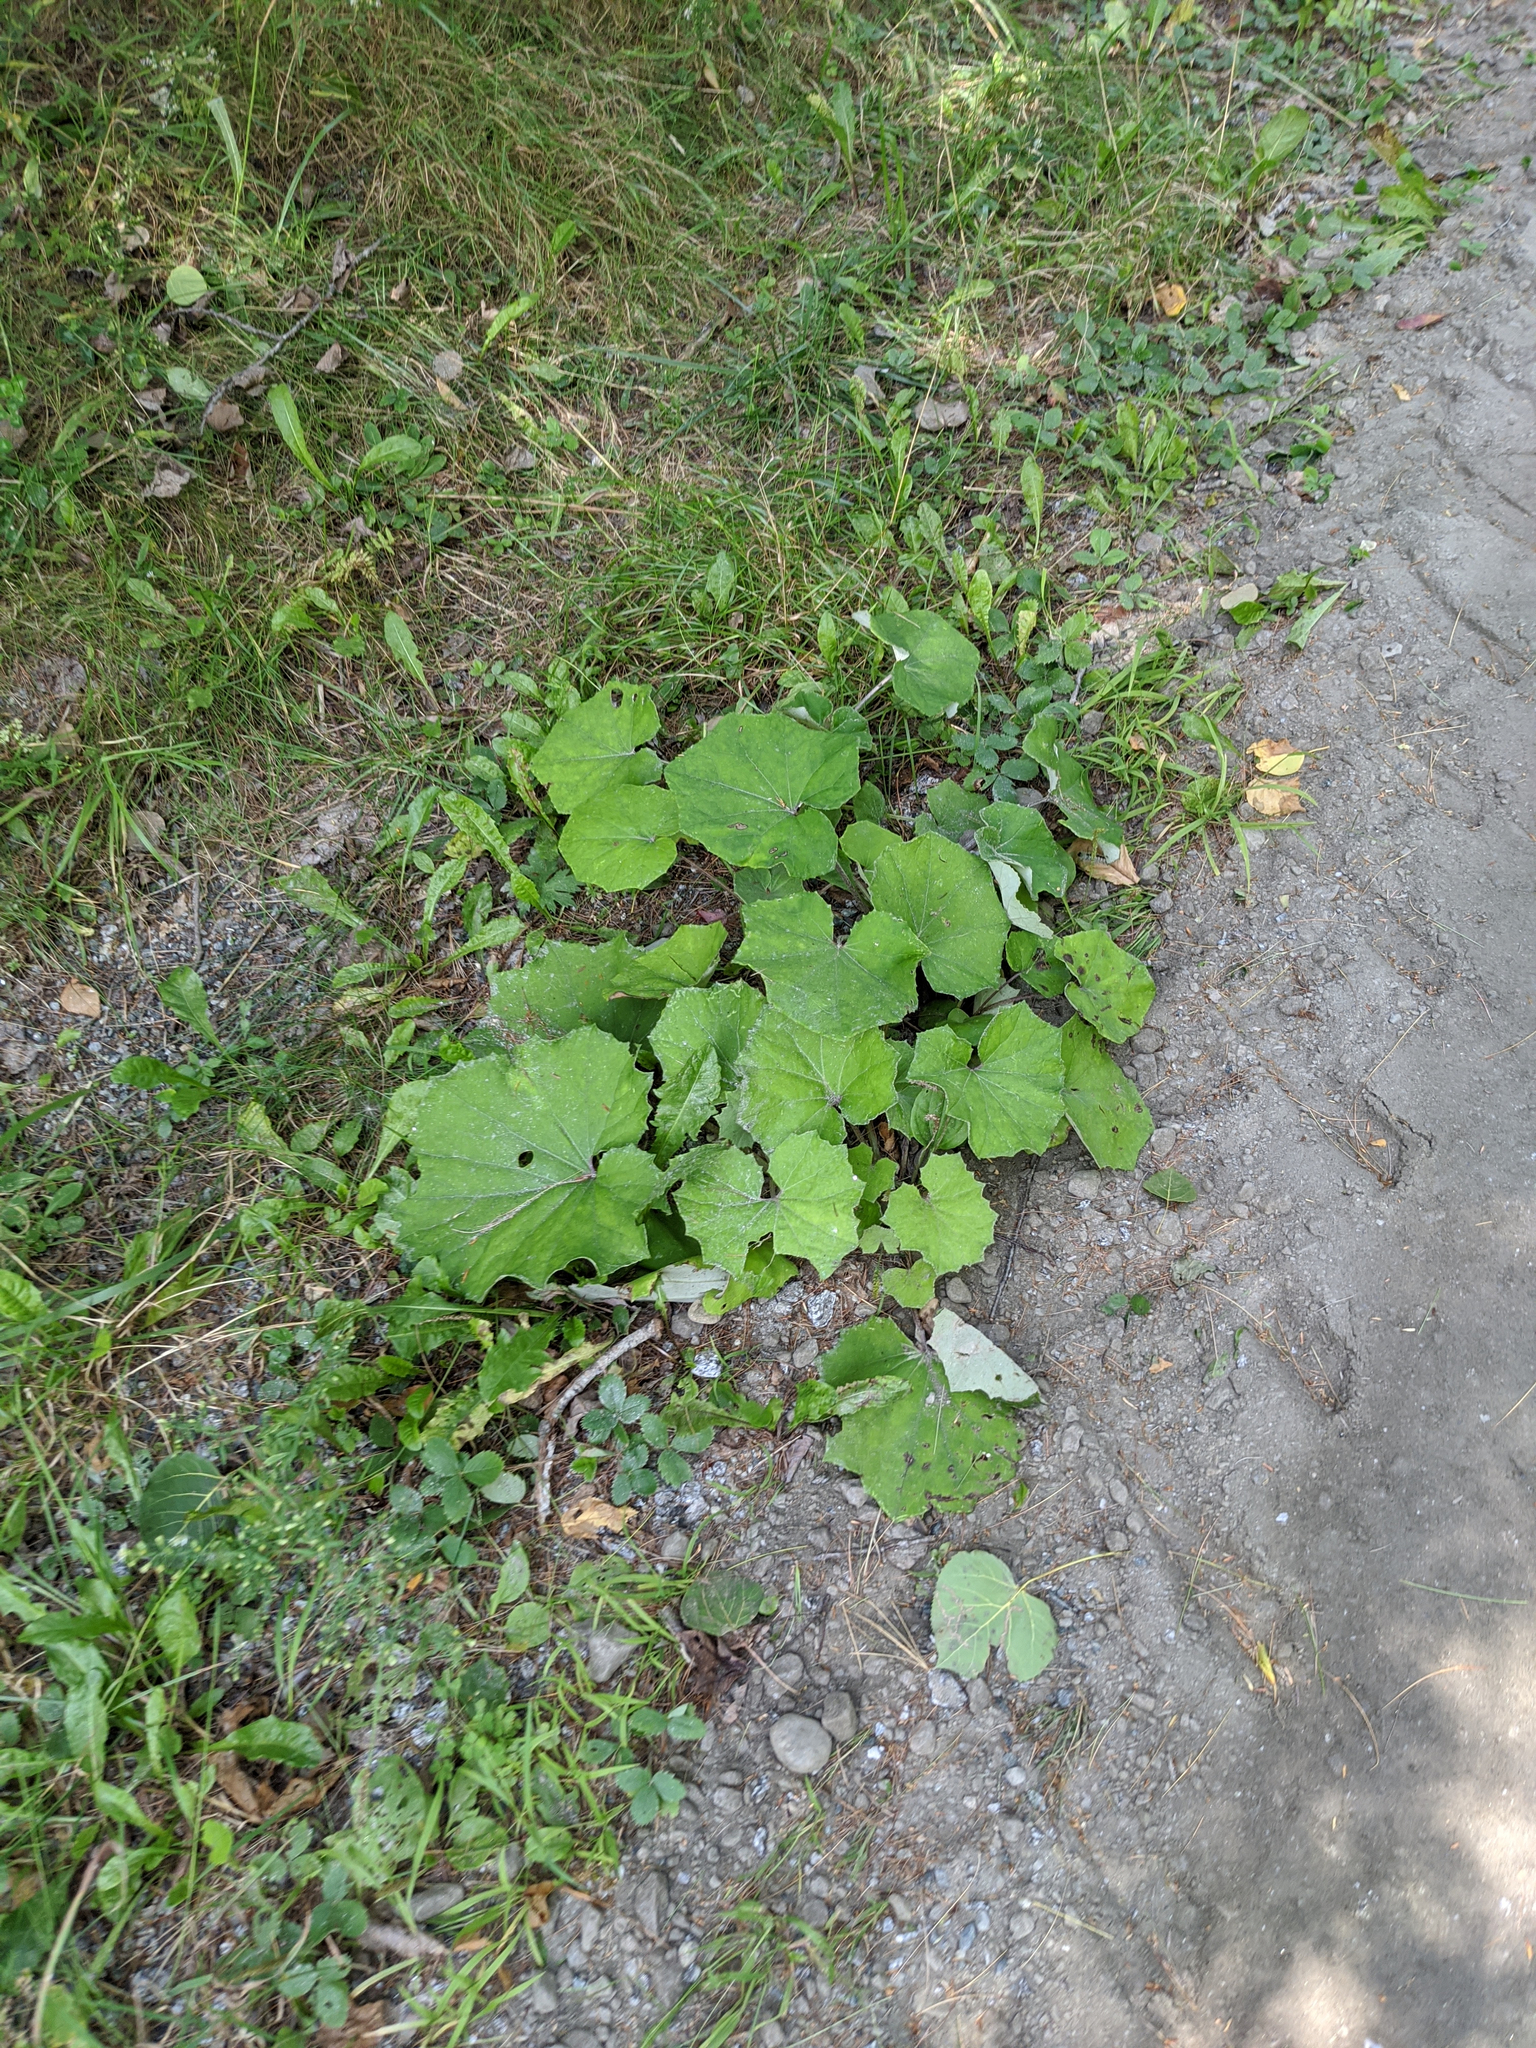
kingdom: Plantae
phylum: Tracheophyta
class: Magnoliopsida
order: Asterales
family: Asteraceae
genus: Tussilago
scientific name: Tussilago farfara
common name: Coltsfoot
